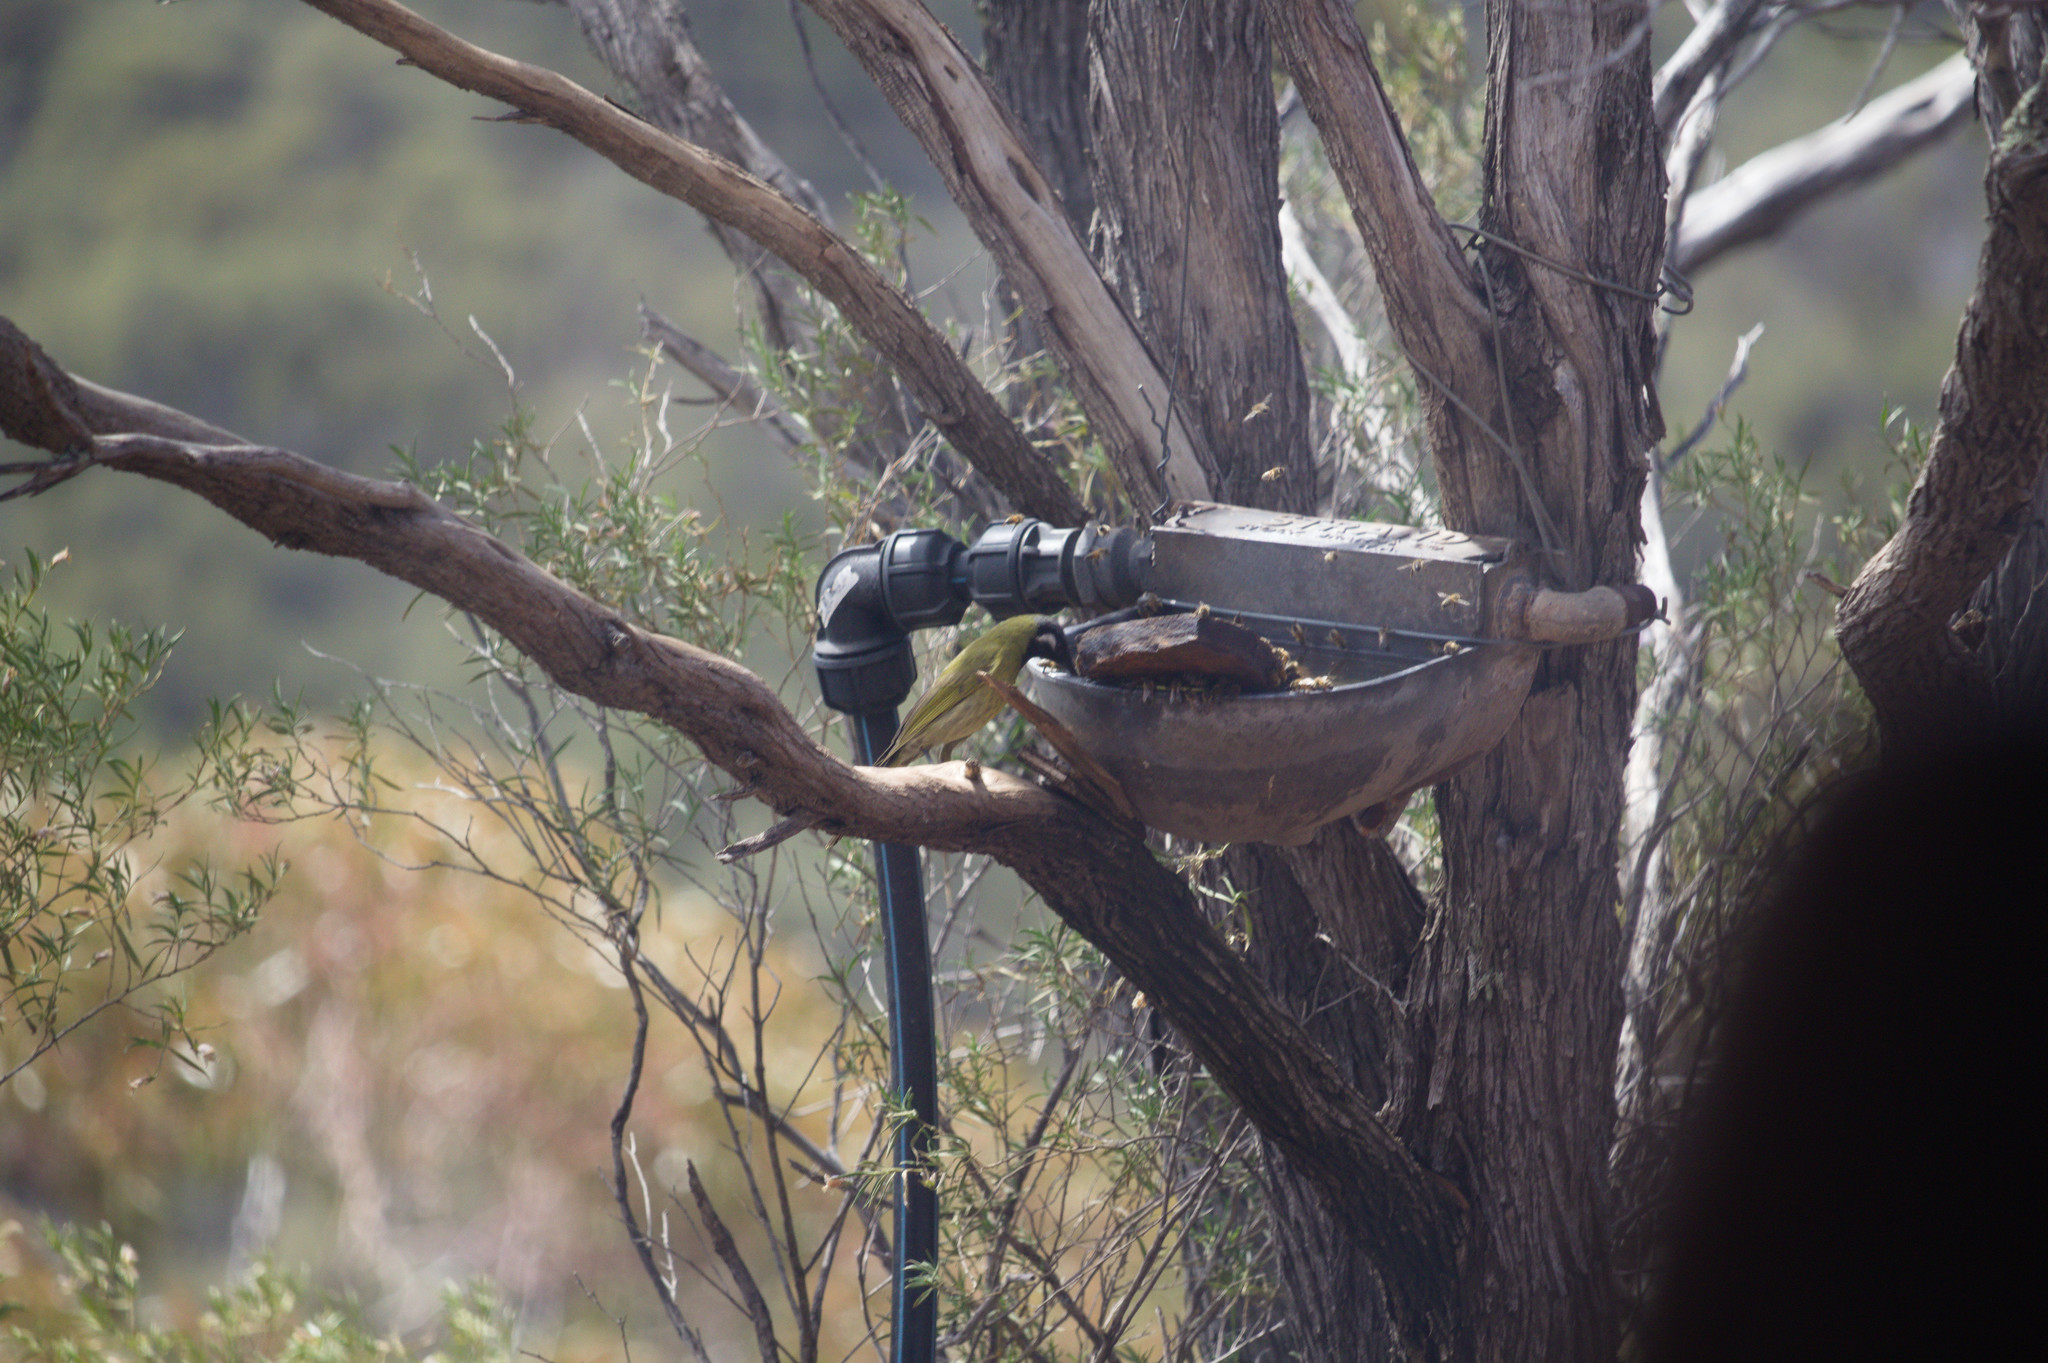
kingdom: Animalia
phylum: Chordata
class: Aves
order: Passeriformes
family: Meliphagidae
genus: Nesoptilotis
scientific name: Nesoptilotis leucotis
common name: White-eared honeyeater
